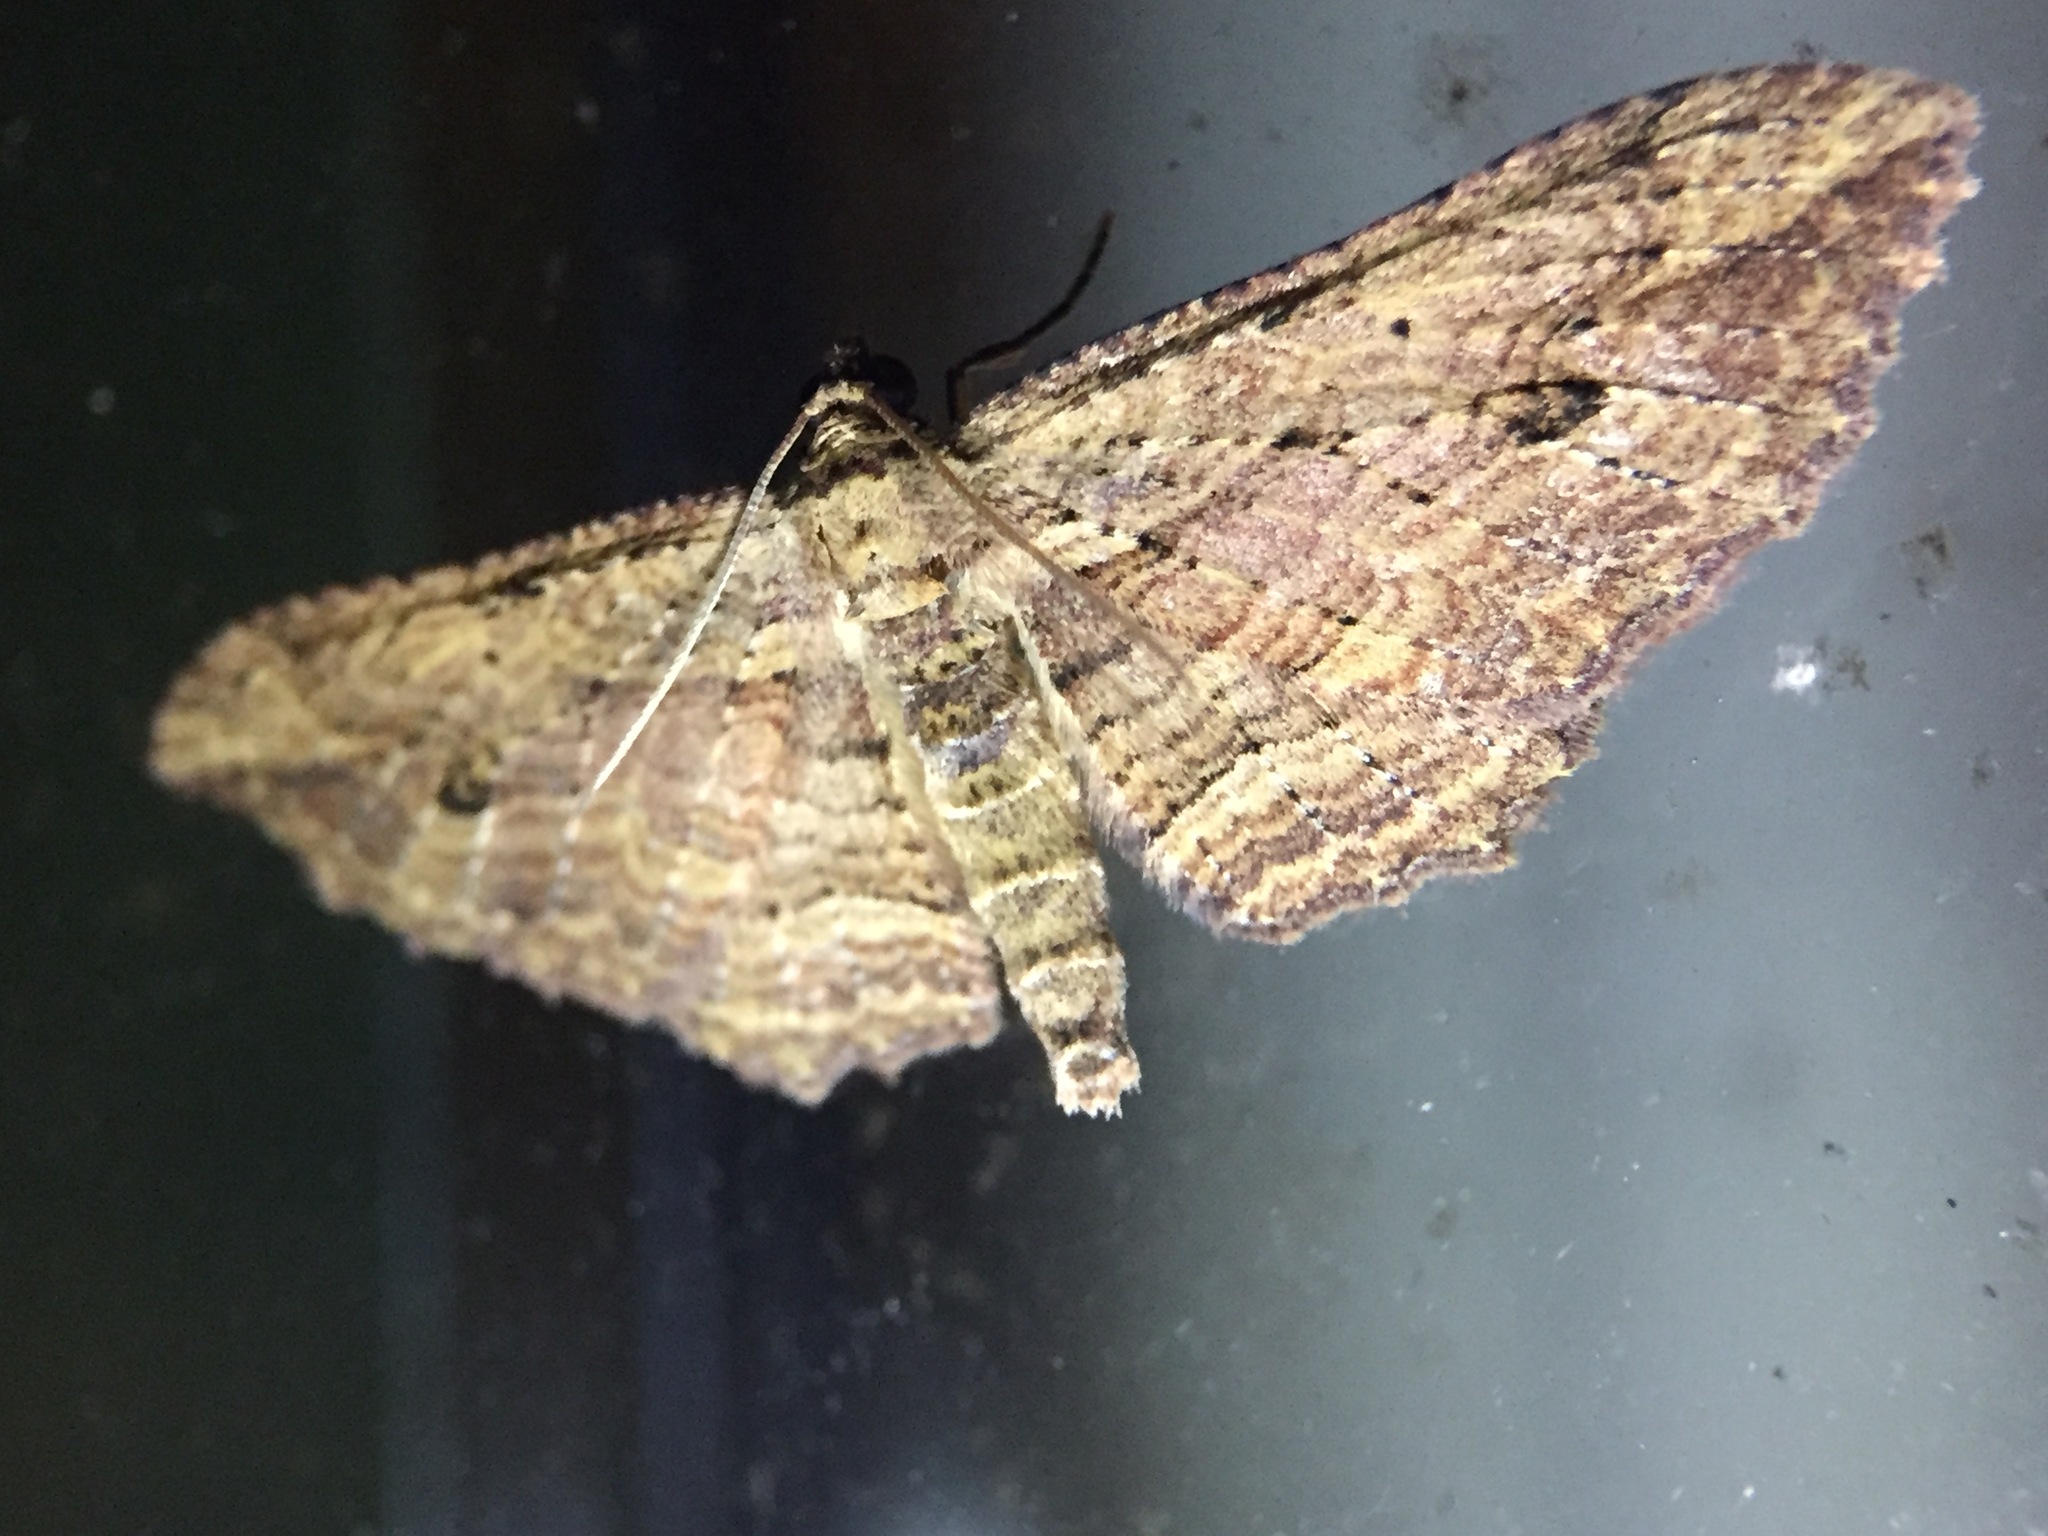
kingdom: Animalia
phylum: Arthropoda
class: Insecta
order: Lepidoptera
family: Geometridae
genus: Austrocidaria
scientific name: Austrocidaria bipartita
